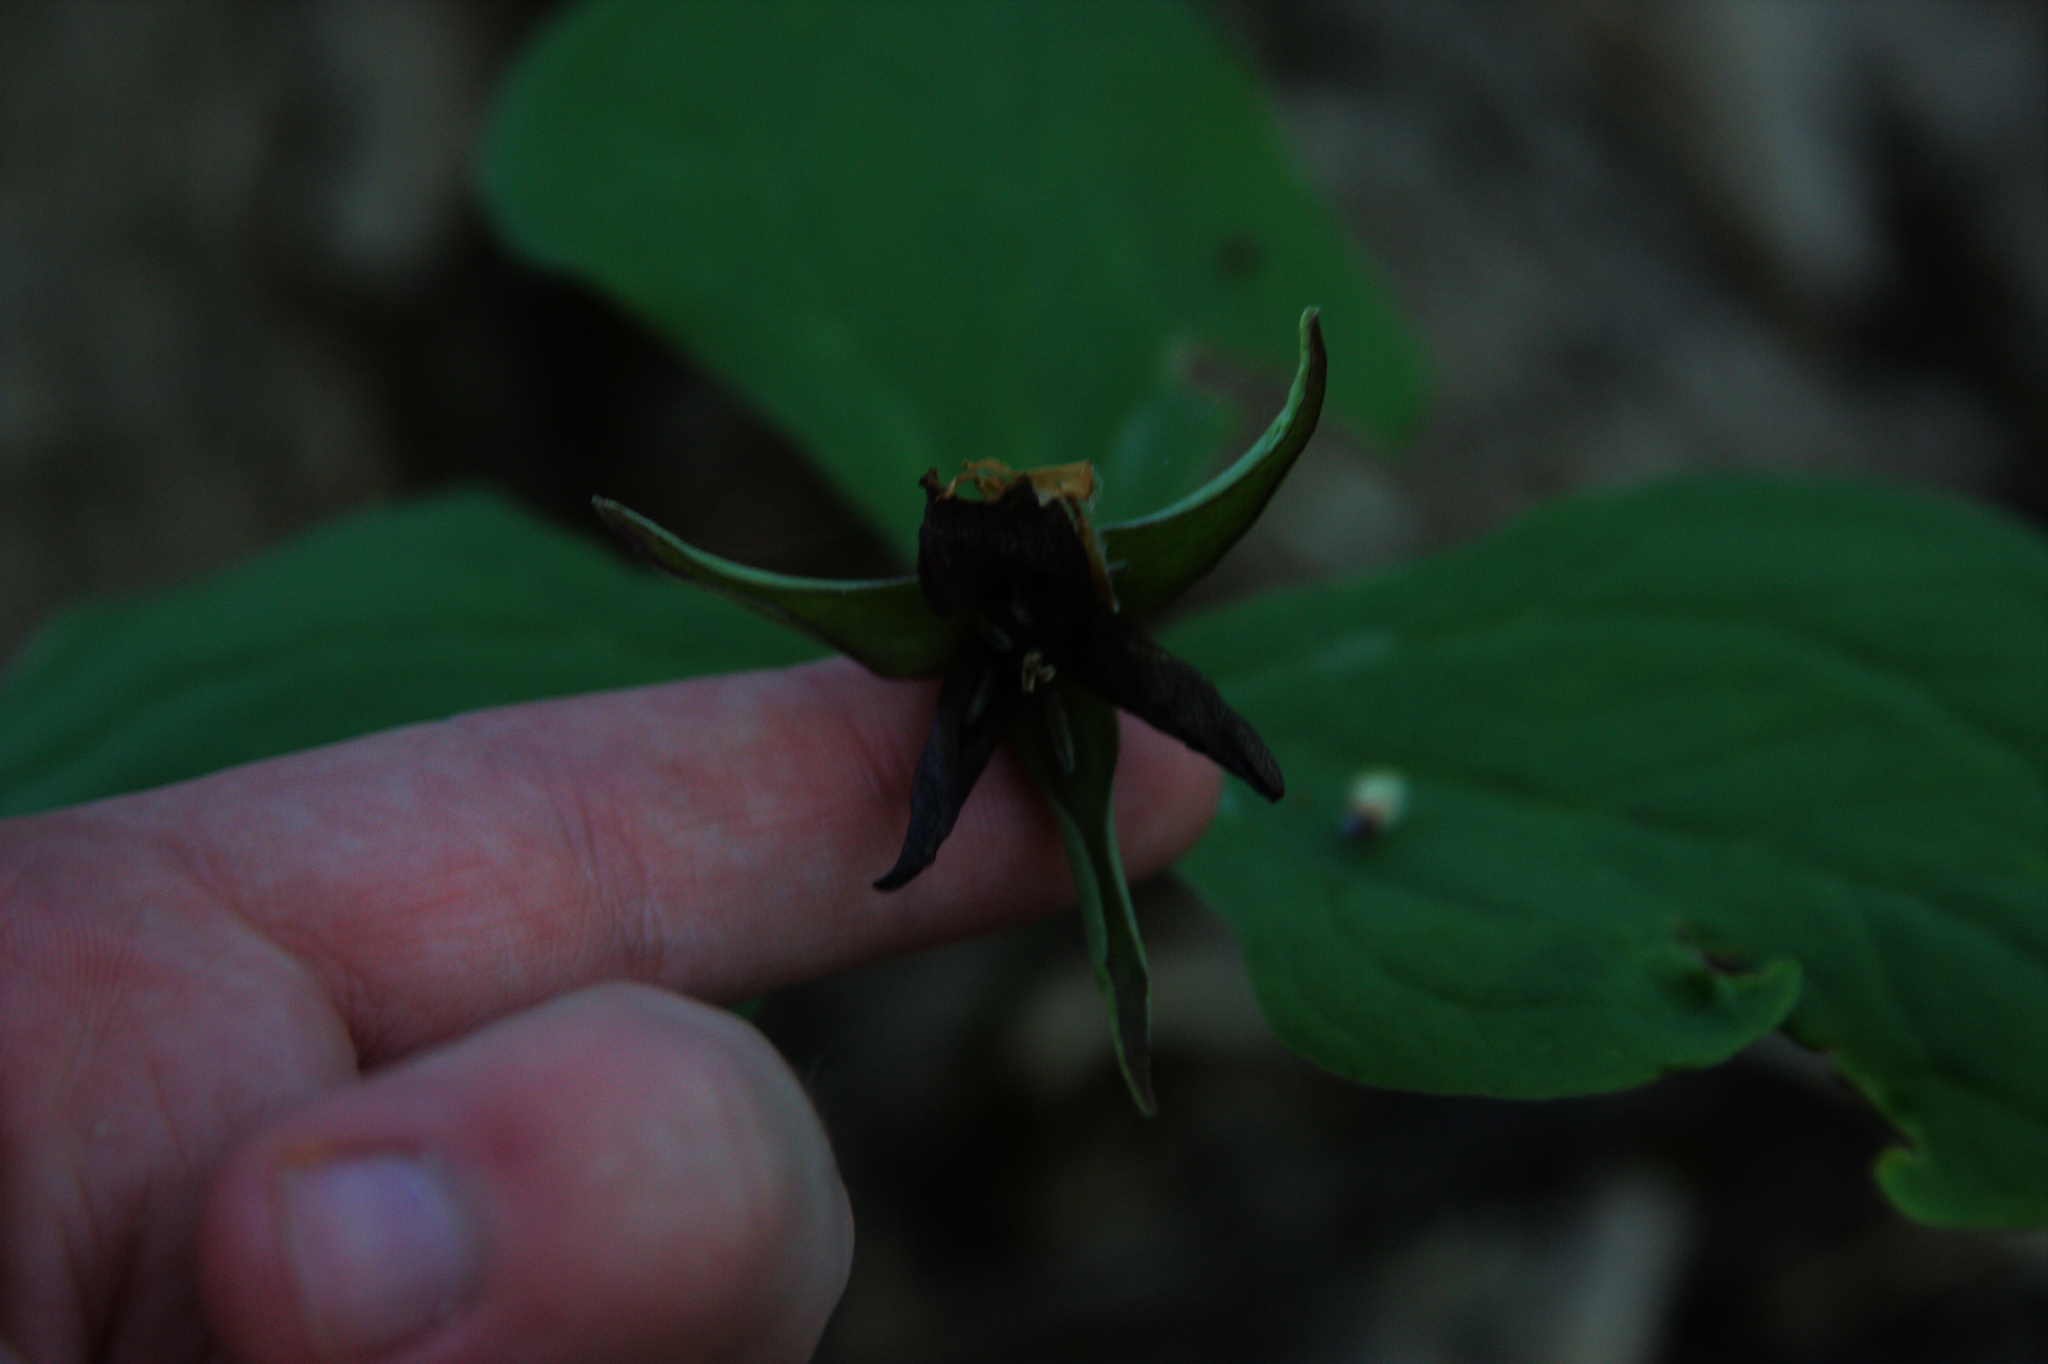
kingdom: Plantae
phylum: Tracheophyta
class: Liliopsida
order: Liliales
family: Melanthiaceae
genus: Trillium
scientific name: Trillium erectum
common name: Purple trillium
